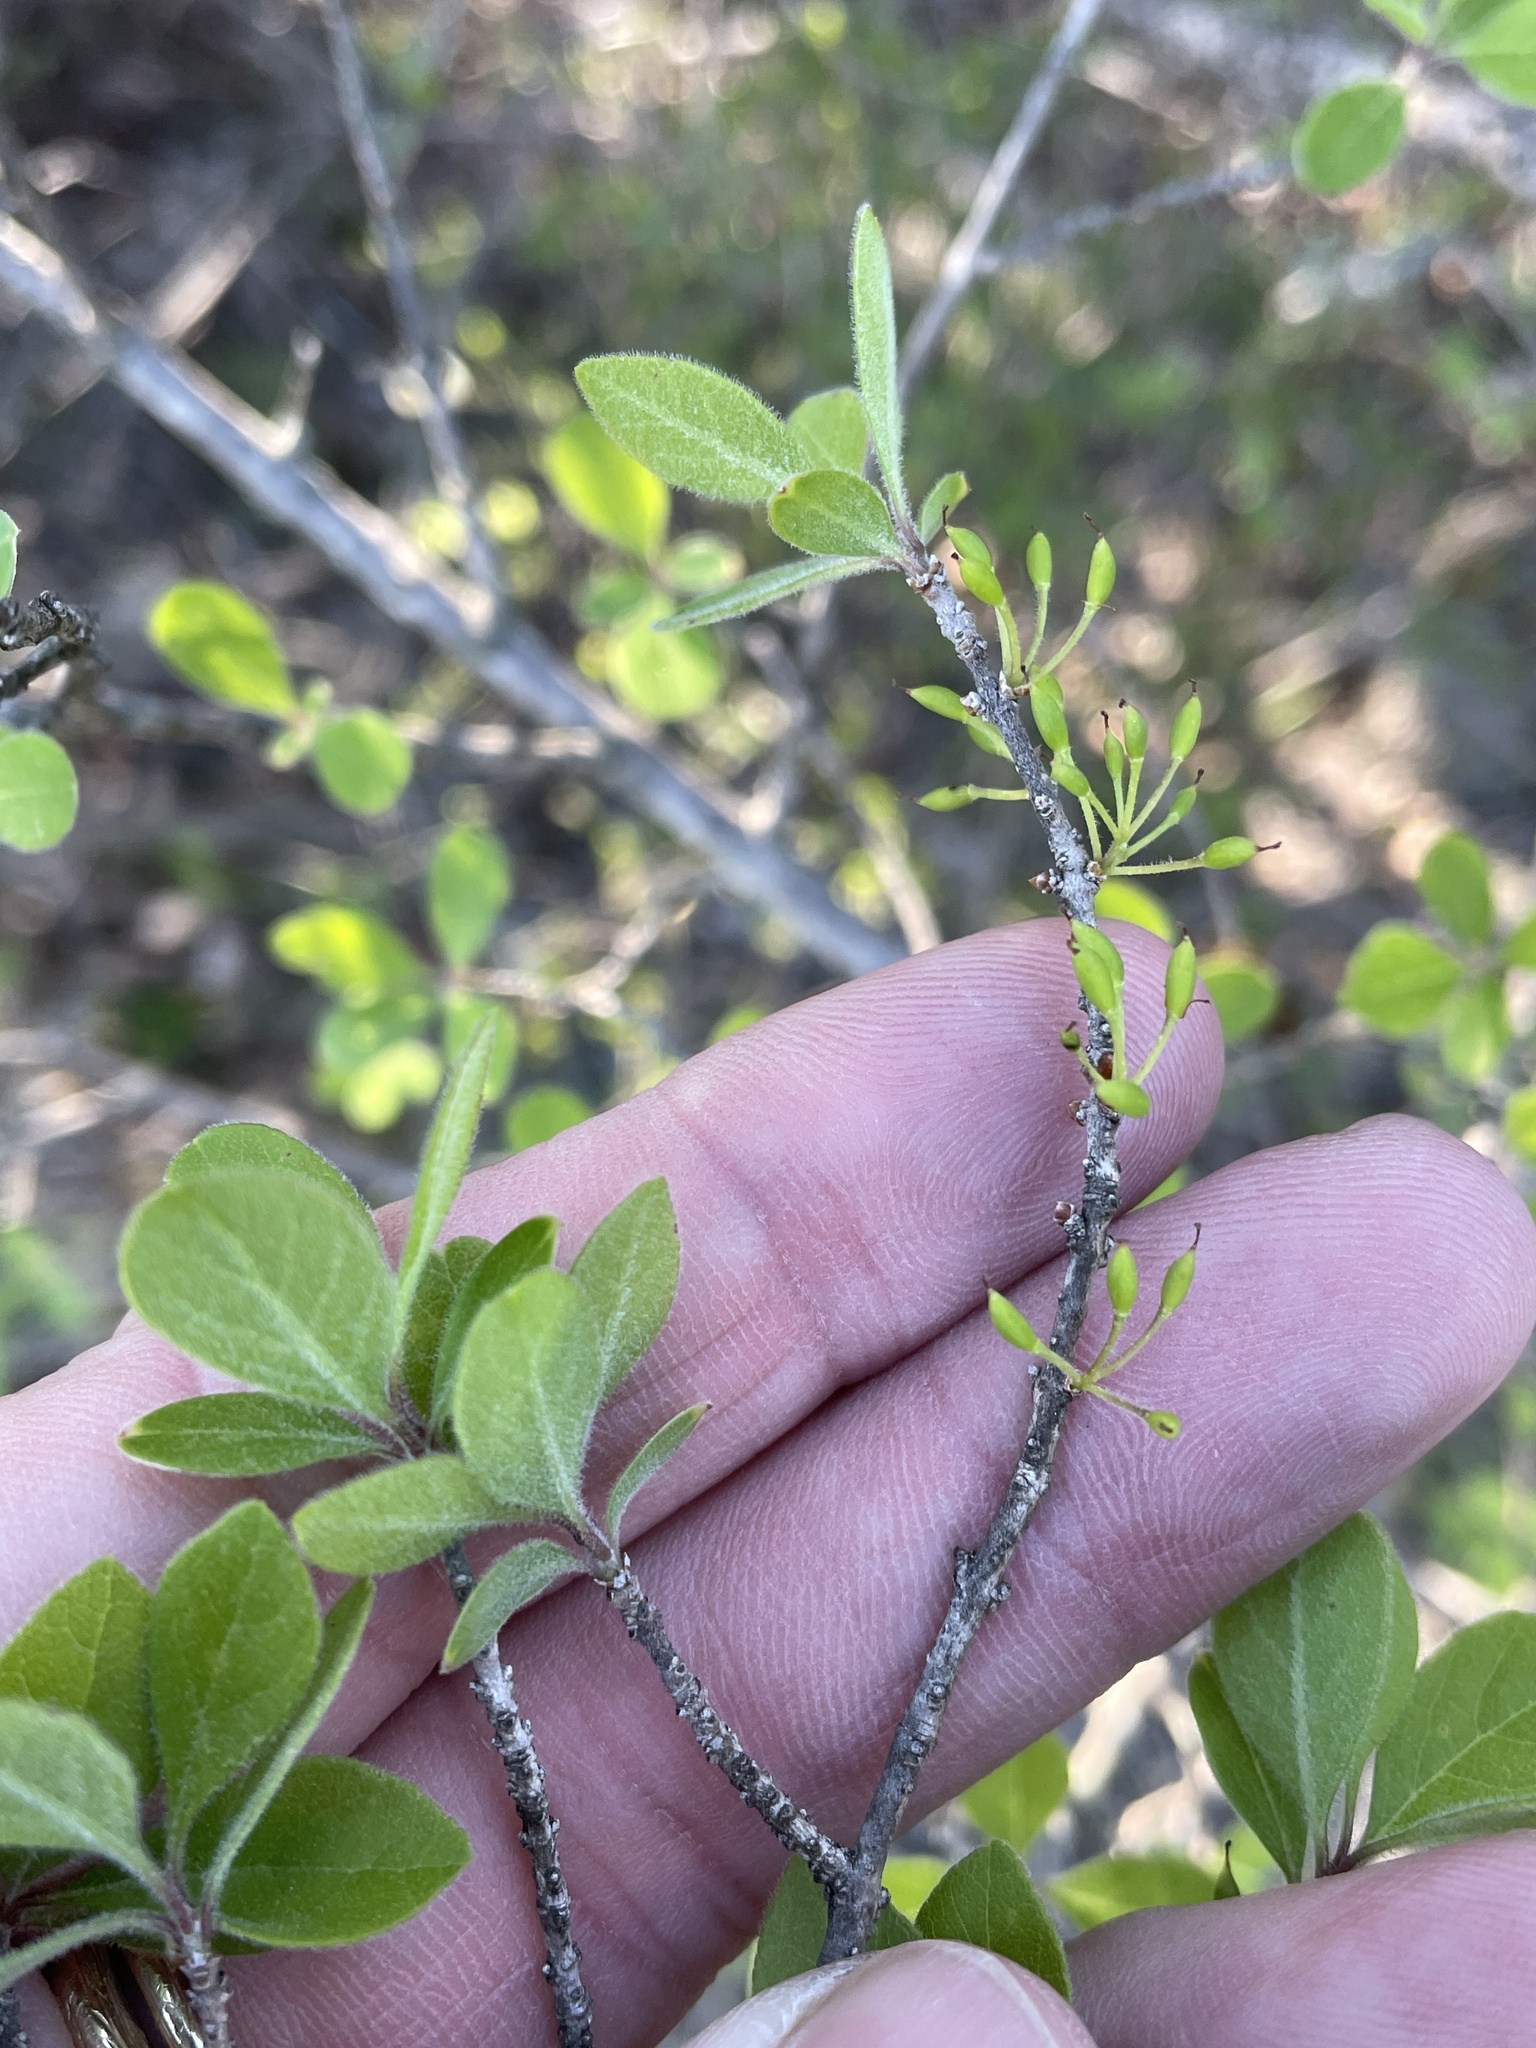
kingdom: Plantae
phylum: Tracheophyta
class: Magnoliopsida
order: Lamiales
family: Oleaceae
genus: Forestiera
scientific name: Forestiera pubescens
